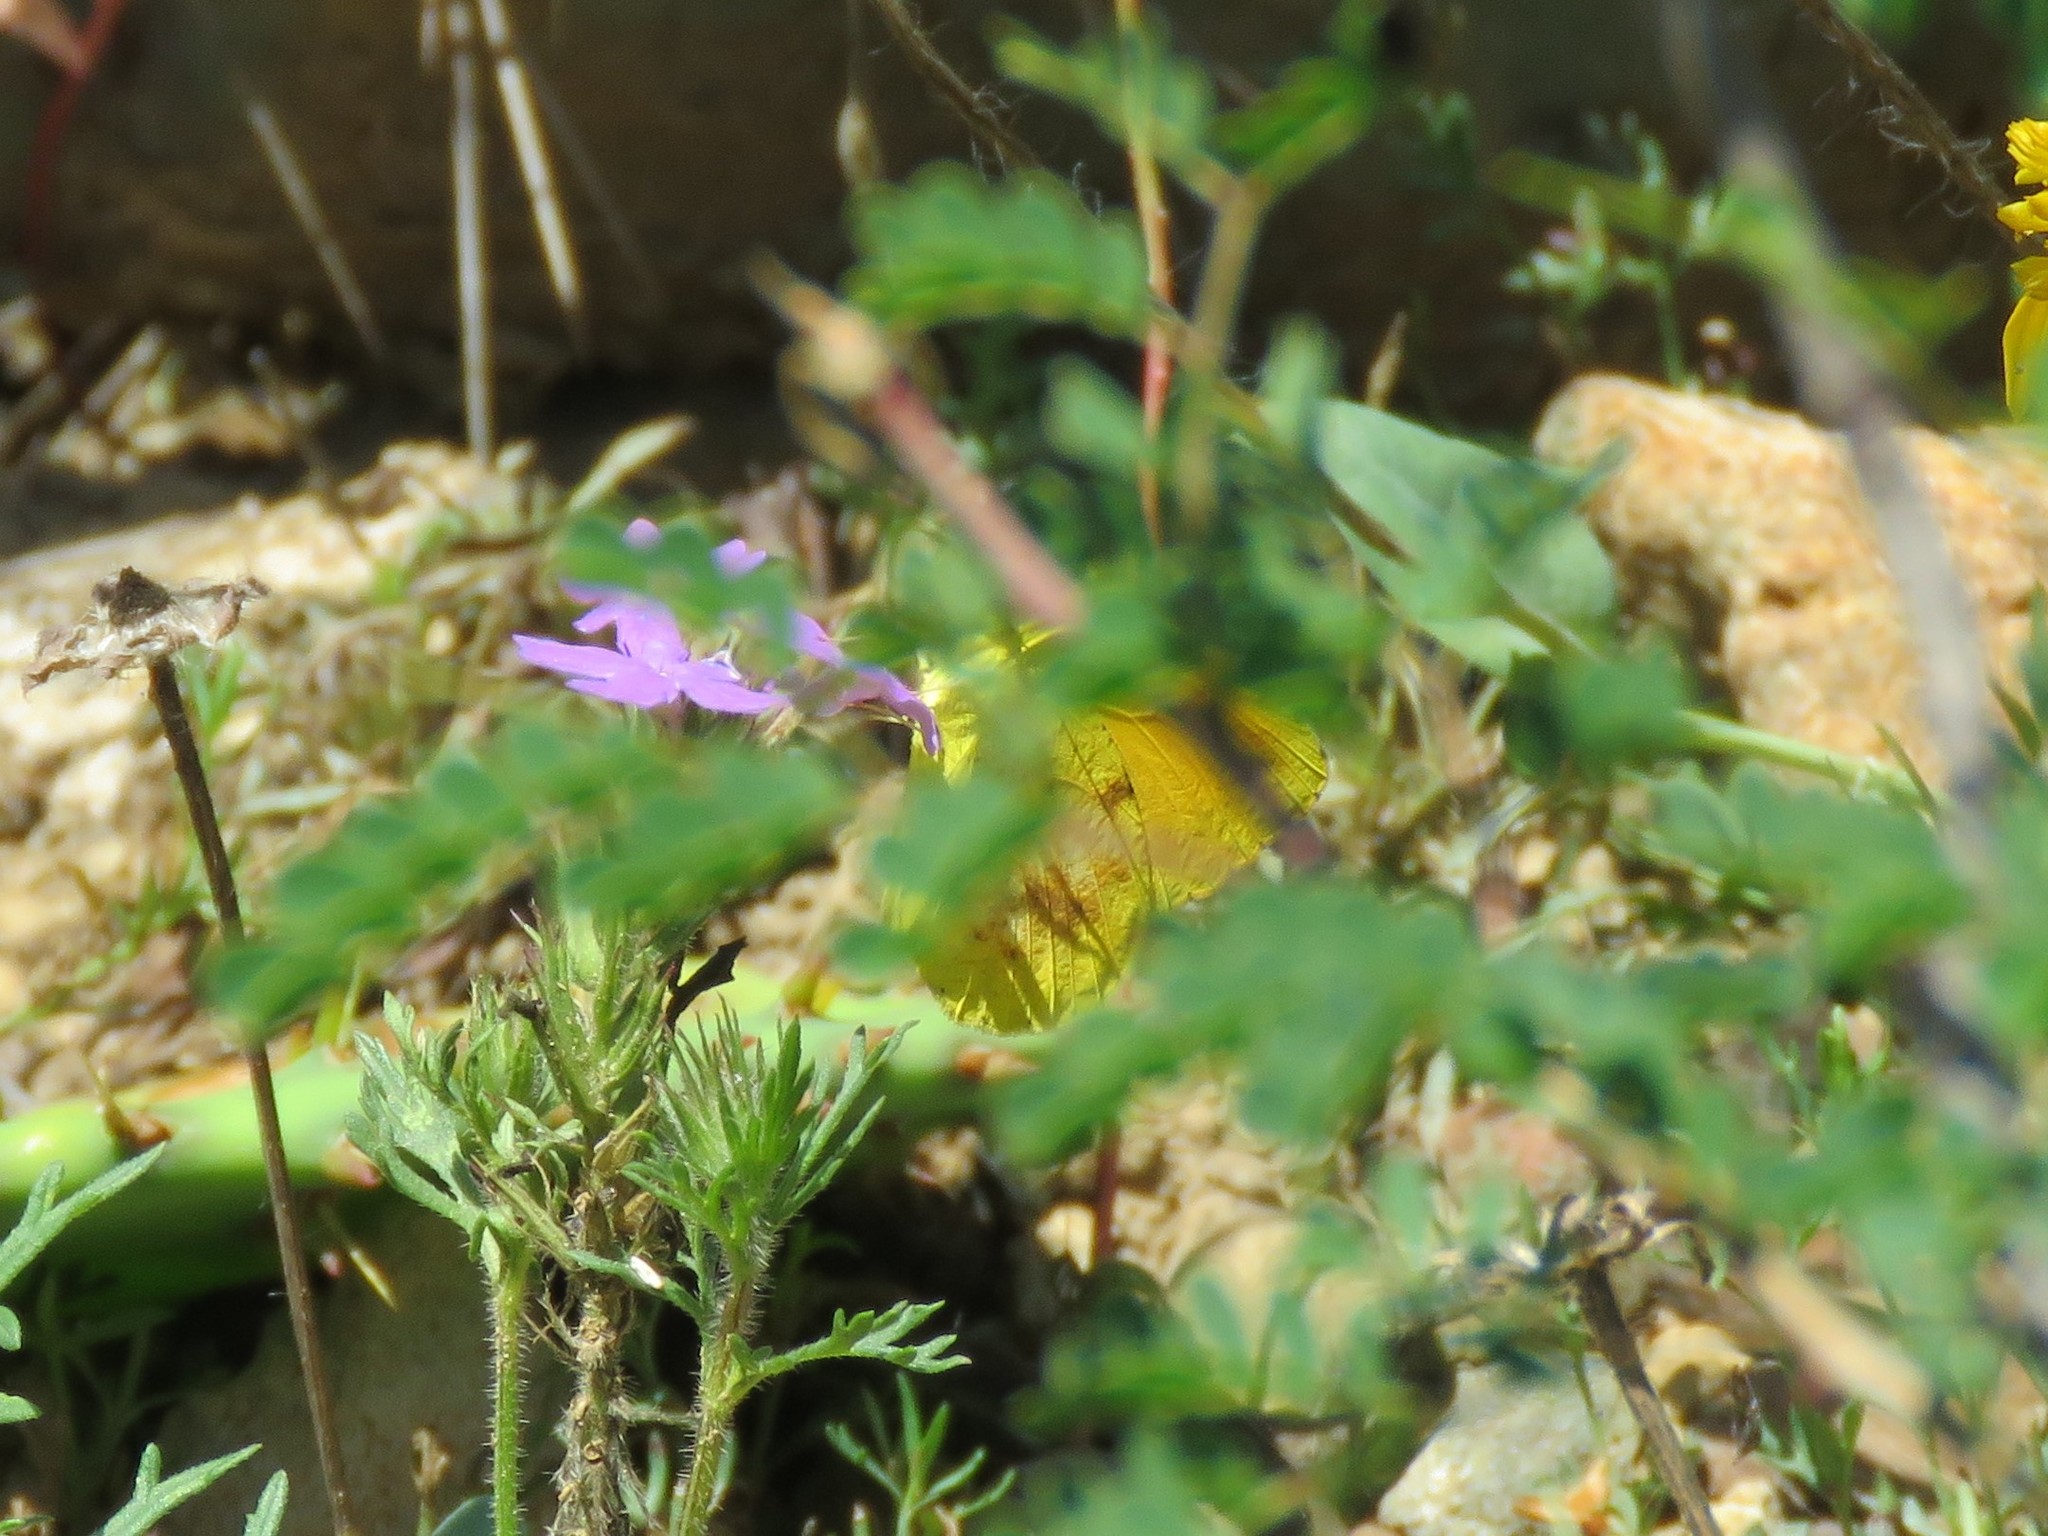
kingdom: Animalia
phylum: Arthropoda
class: Insecta
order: Lepidoptera
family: Pieridae
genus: Abaeis
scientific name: Abaeis nicippe
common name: Sleepy orange
